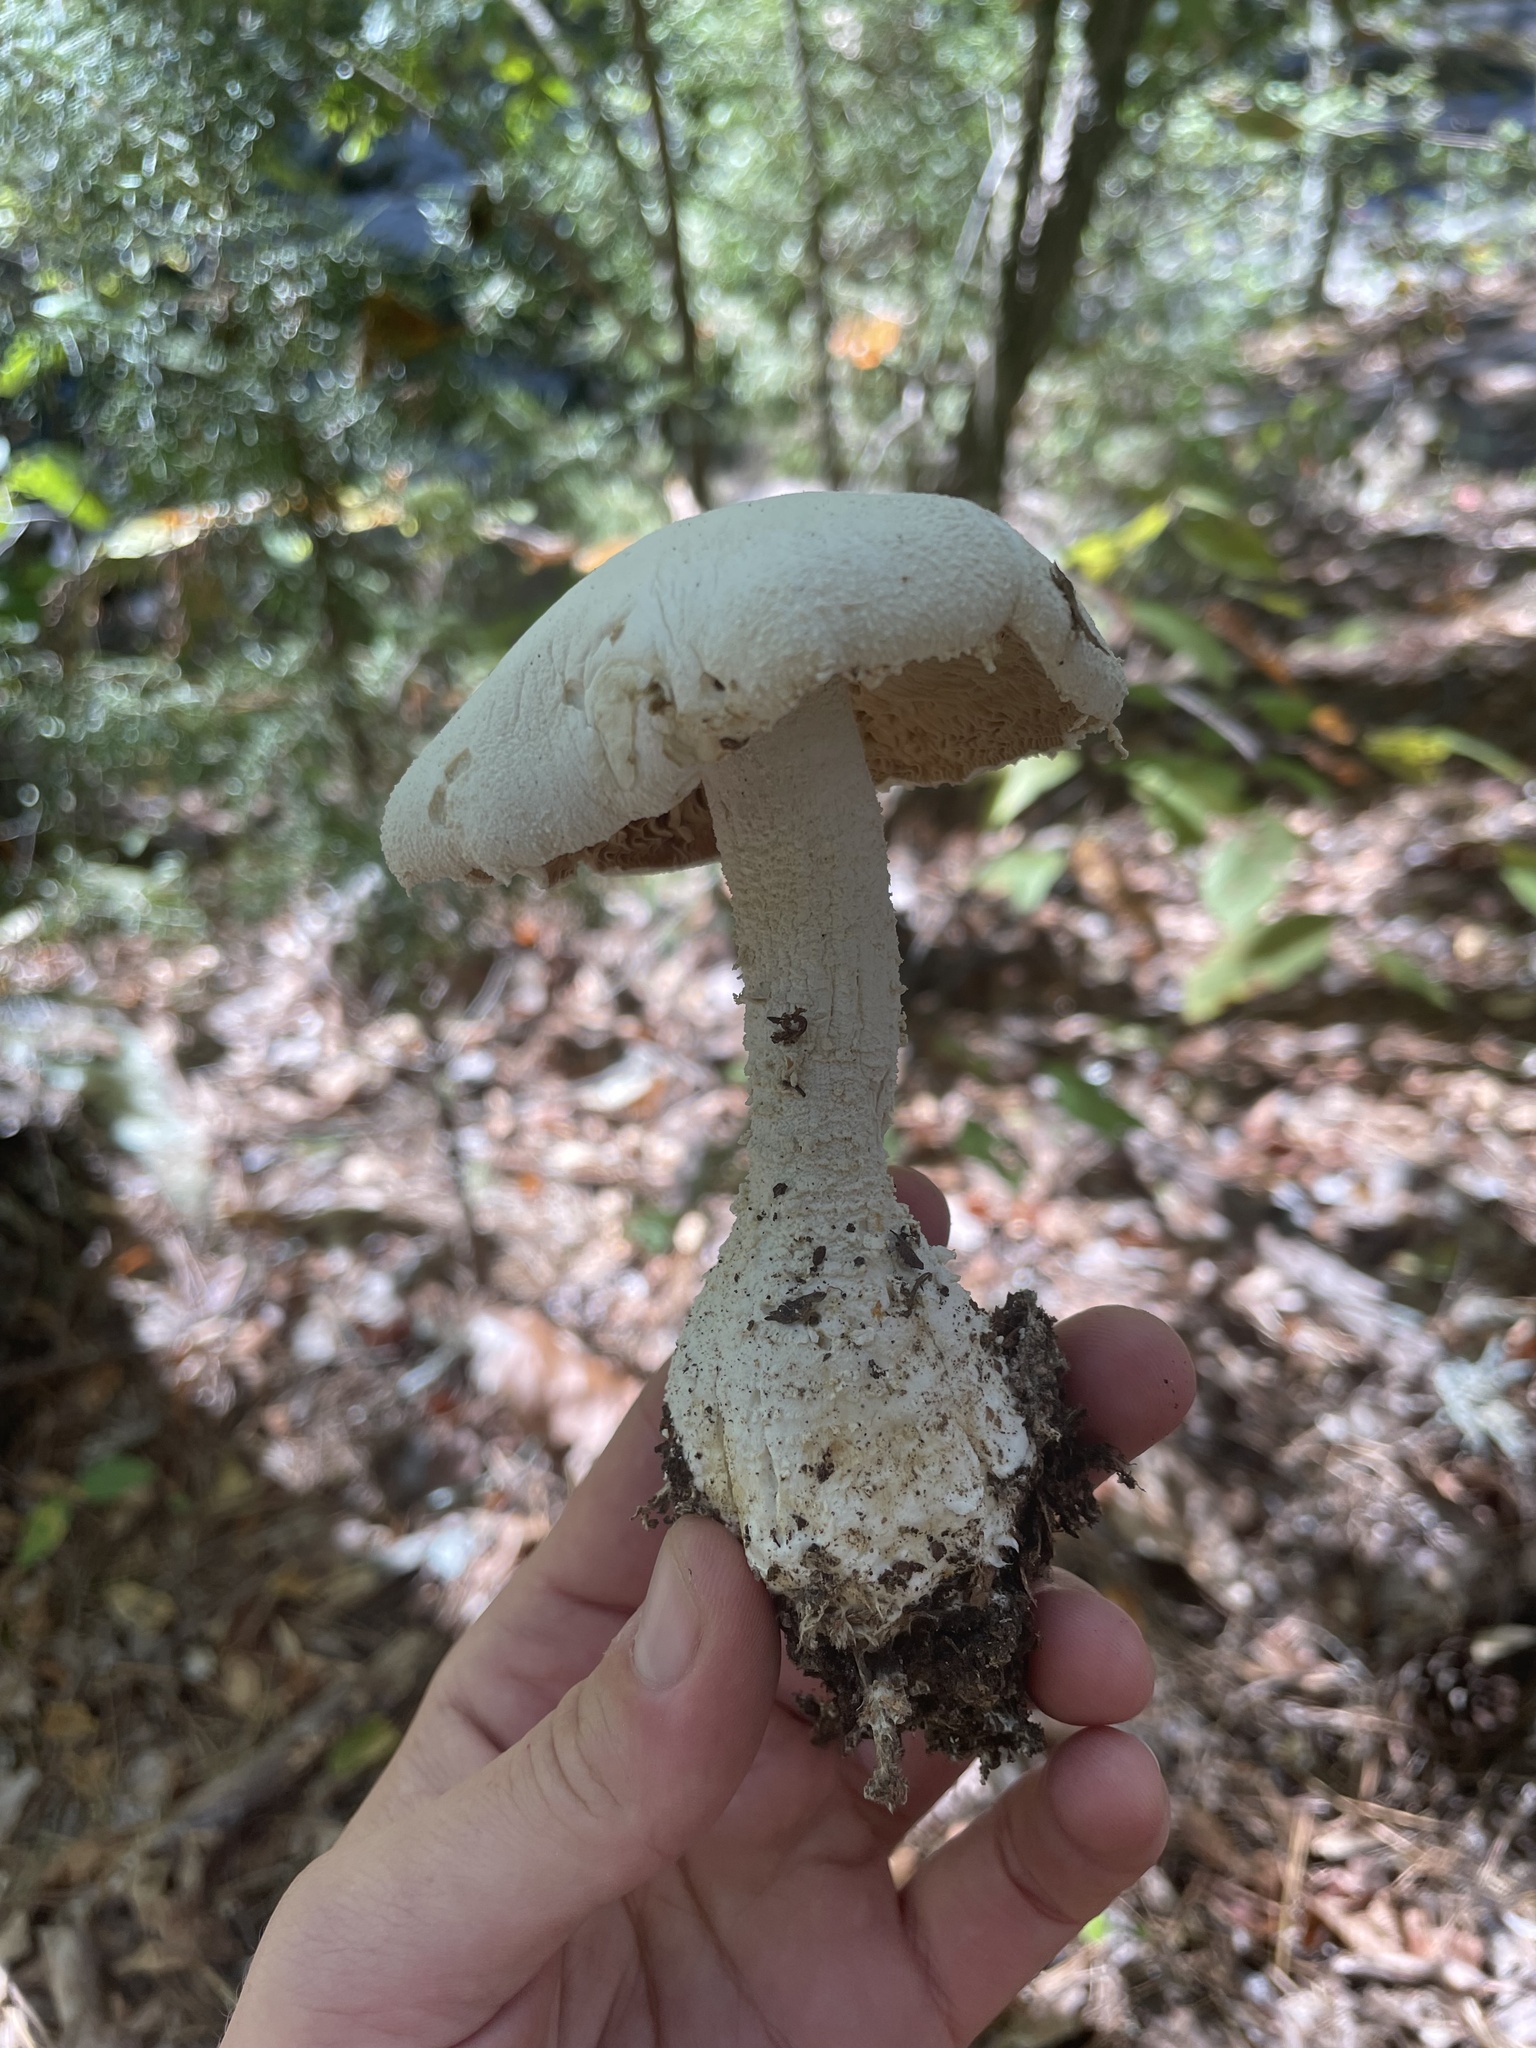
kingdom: Fungi
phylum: Basidiomycota
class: Agaricomycetes
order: Agaricales
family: Amanitaceae
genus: Amanita
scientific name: Amanita polypyramis
